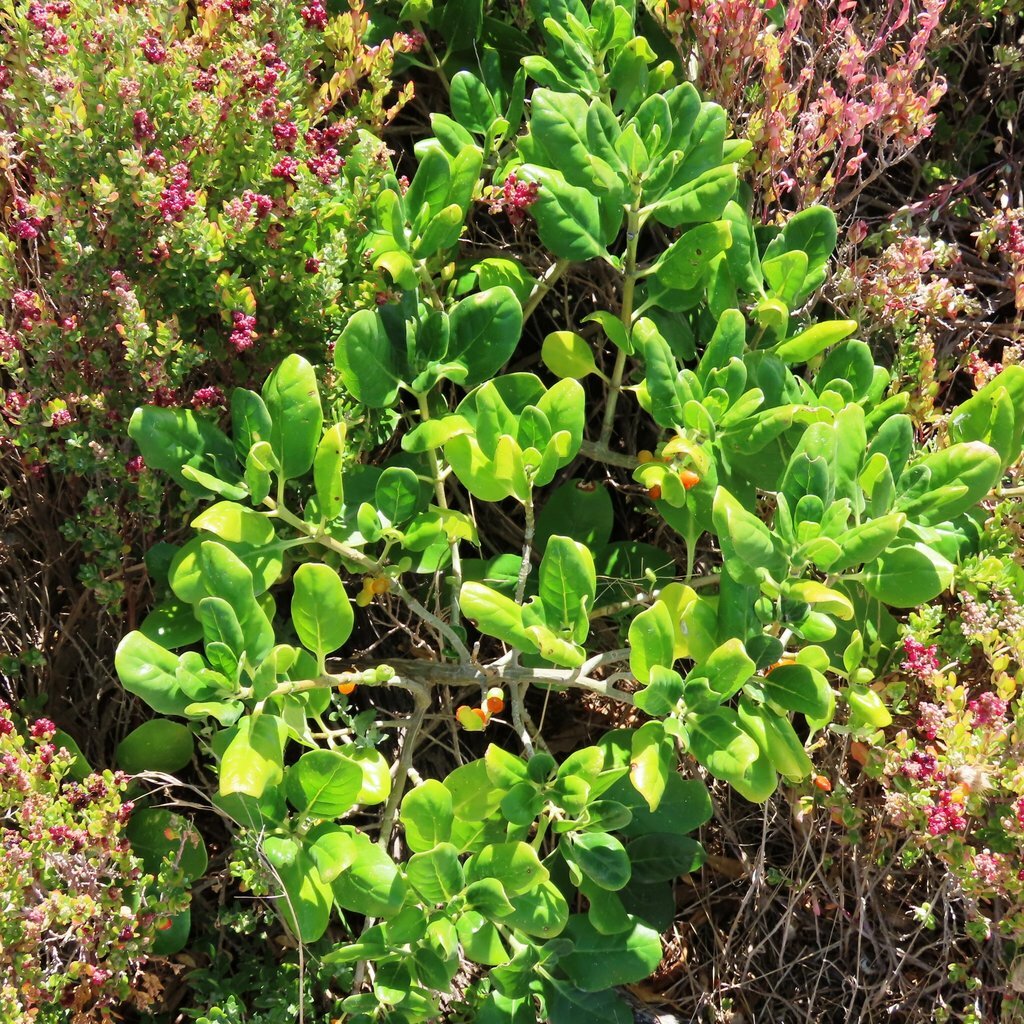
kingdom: Plantae
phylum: Tracheophyta
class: Magnoliopsida
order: Gentianales
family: Rubiaceae
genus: Coprosma
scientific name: Coprosma repens
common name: Tree bedstraw
